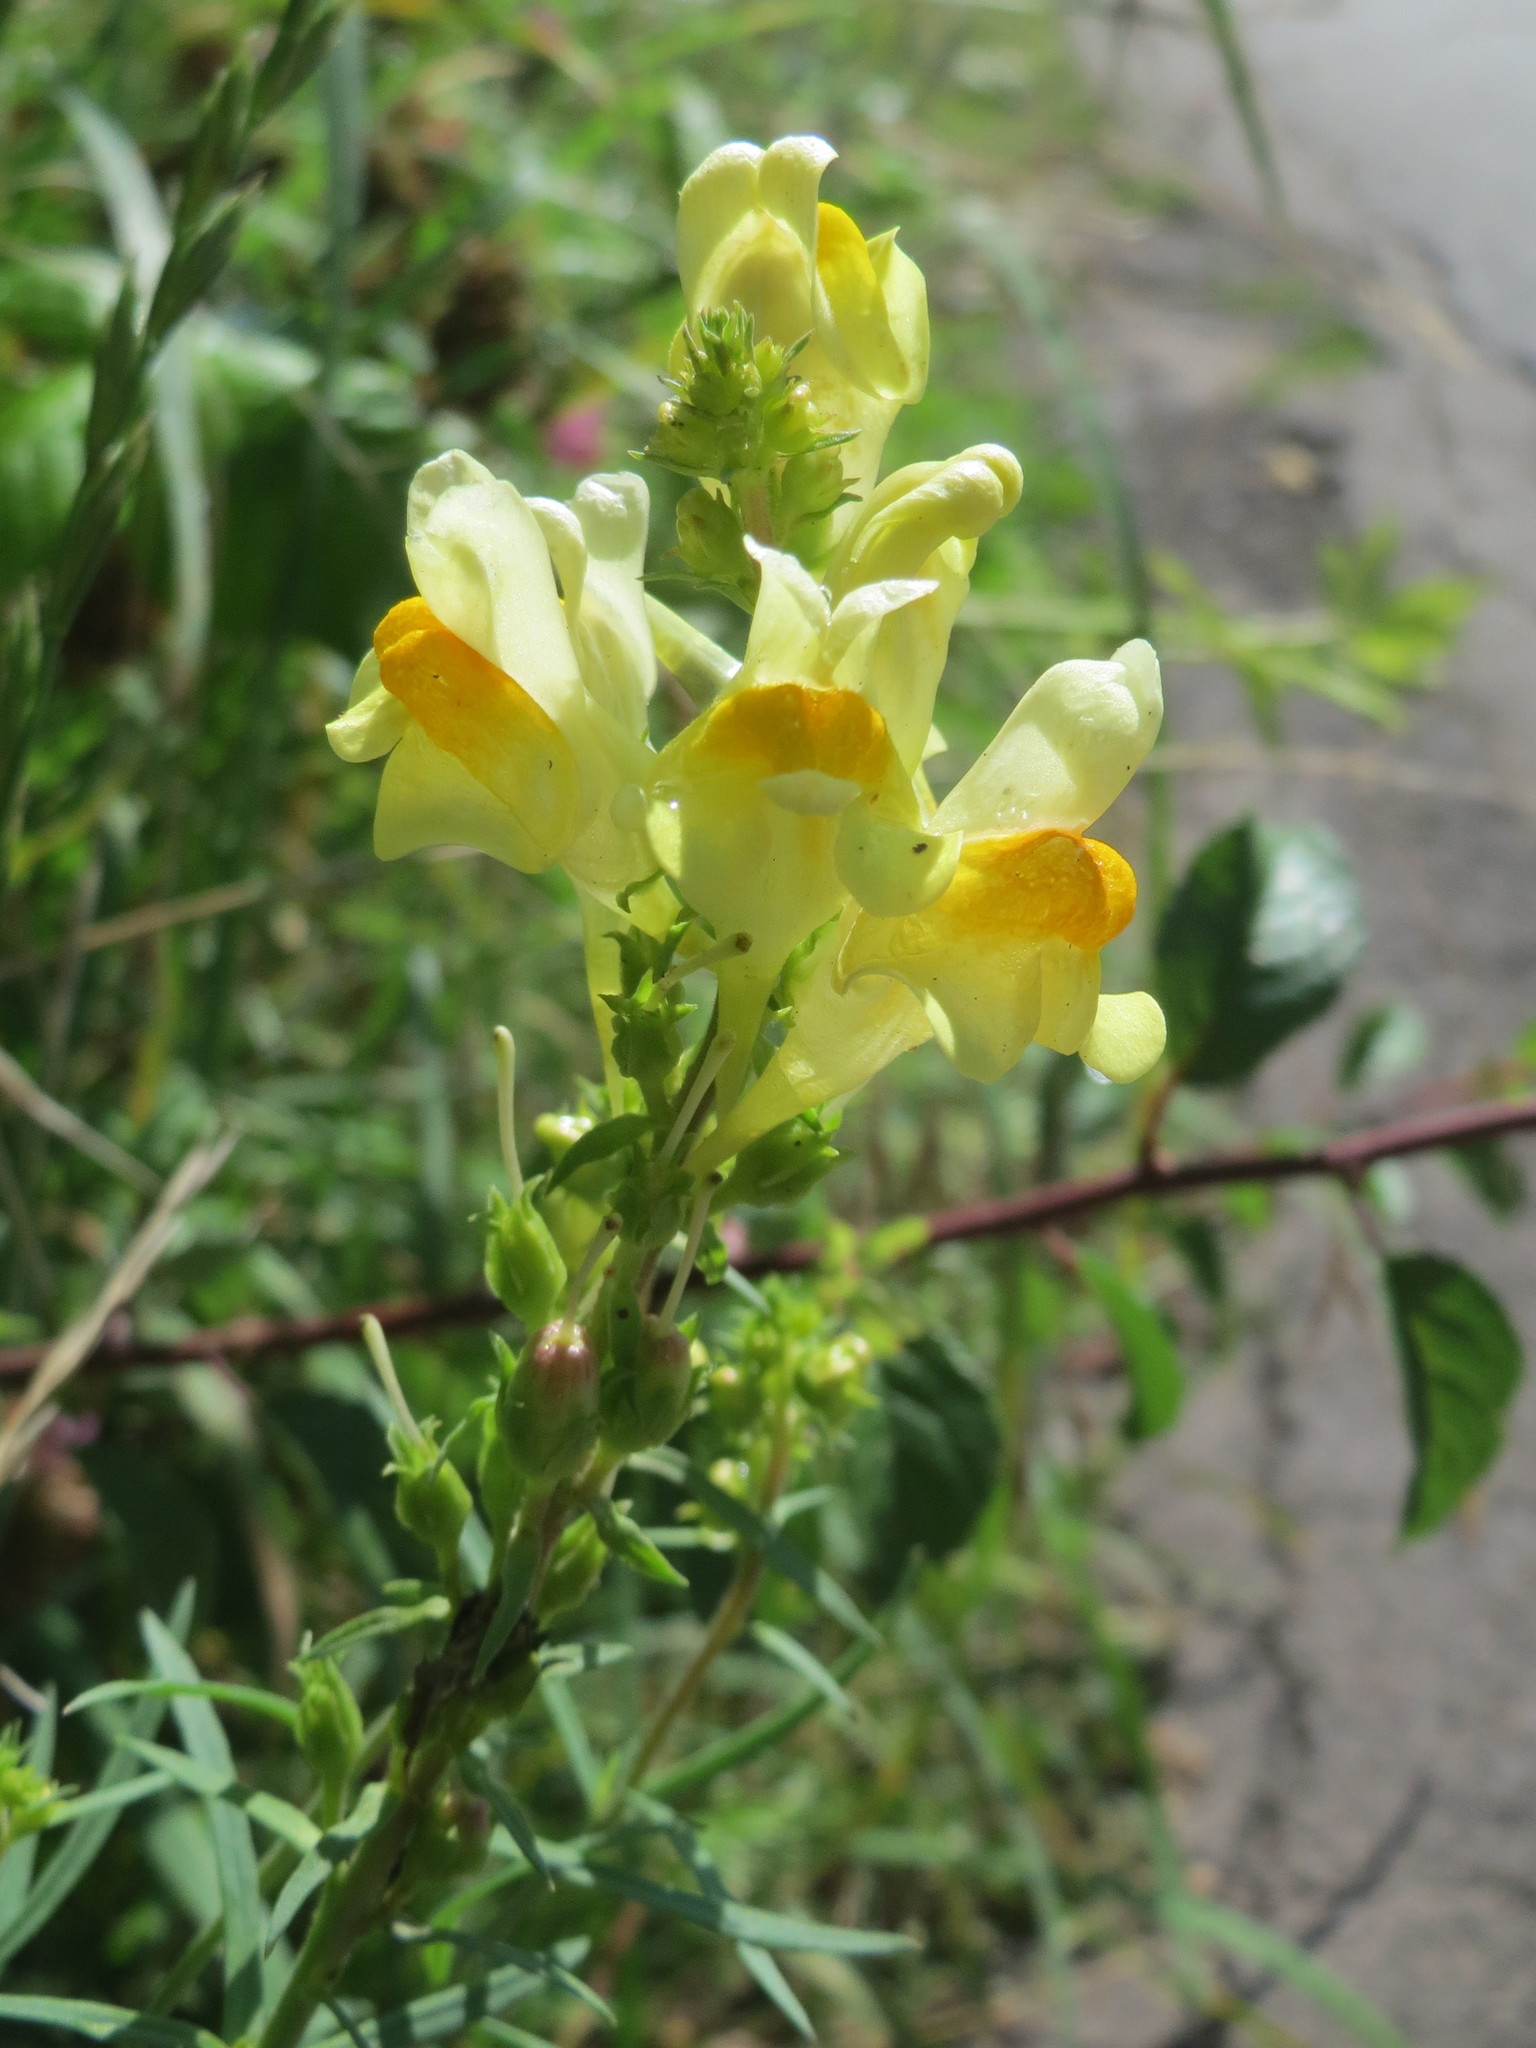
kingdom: Plantae
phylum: Tracheophyta
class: Magnoliopsida
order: Lamiales
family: Plantaginaceae
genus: Linaria
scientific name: Linaria vulgaris
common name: Butter and eggs
